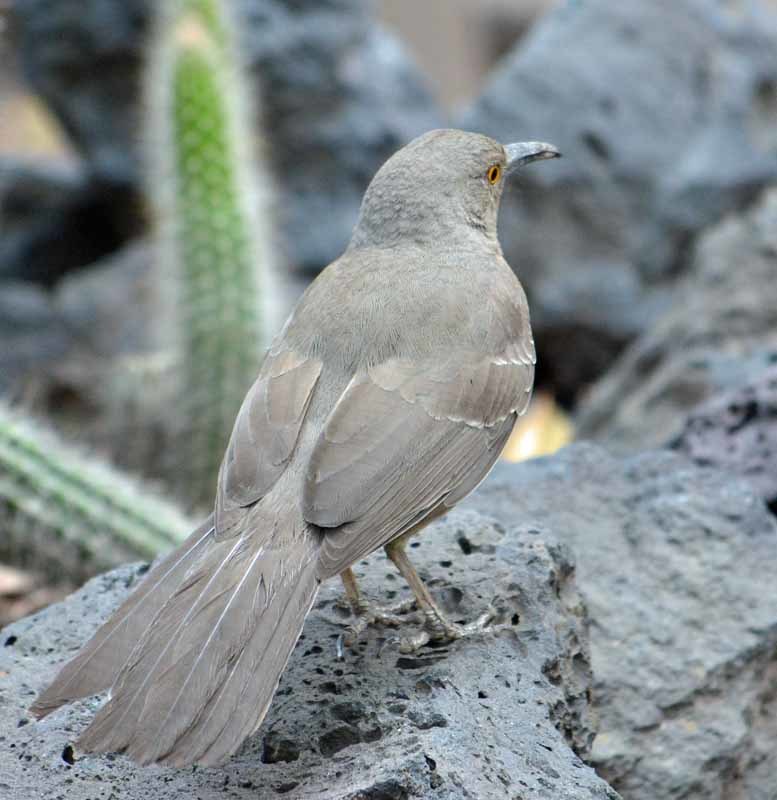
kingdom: Animalia
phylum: Chordata
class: Aves
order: Passeriformes
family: Mimidae
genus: Toxostoma
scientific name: Toxostoma curvirostre
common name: Curve-billed thrasher
